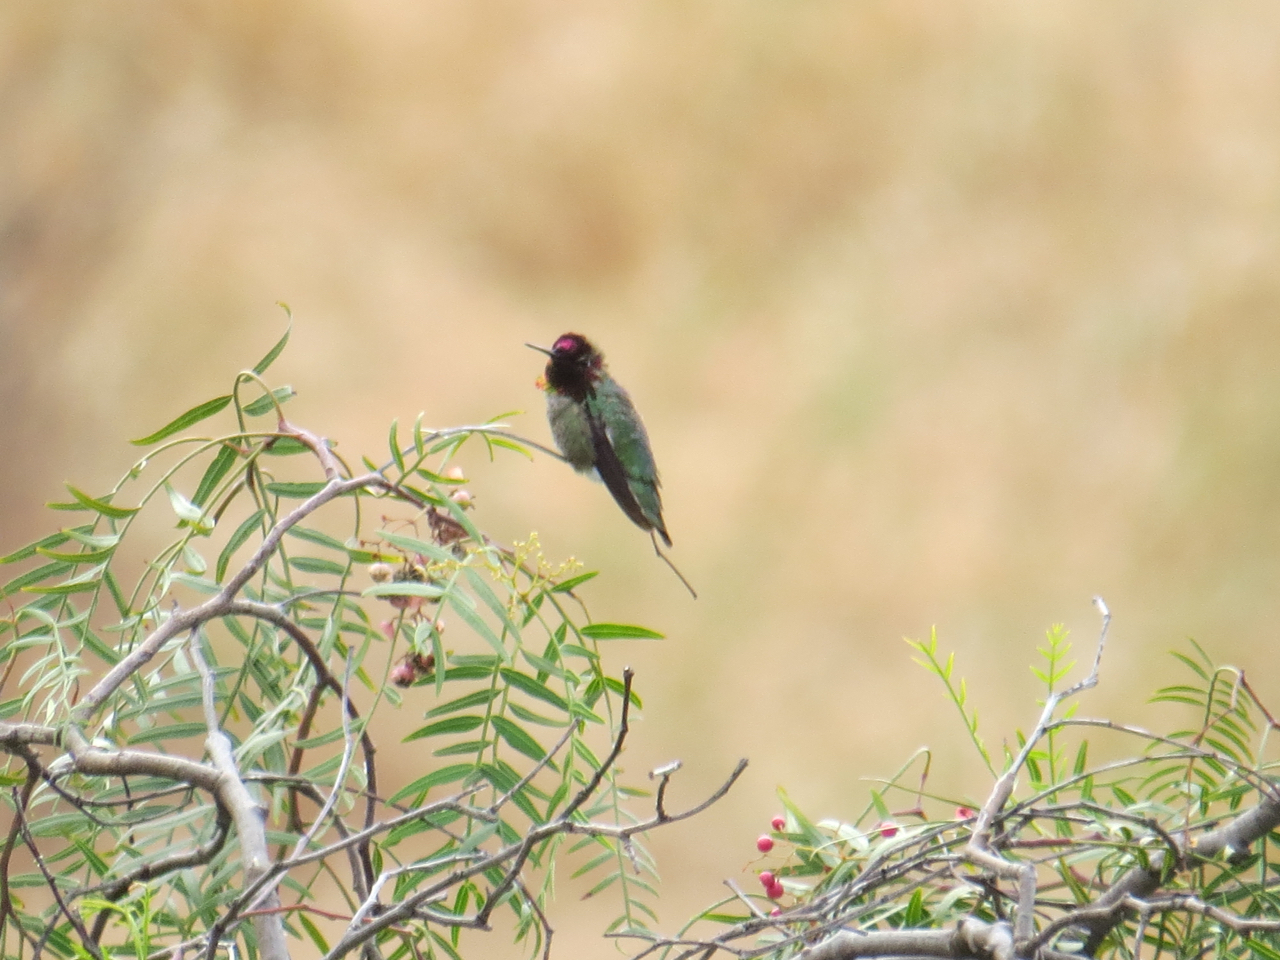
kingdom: Animalia
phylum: Chordata
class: Aves
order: Apodiformes
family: Trochilidae
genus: Calypte
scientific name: Calypte anna
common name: Anna's hummingbird
